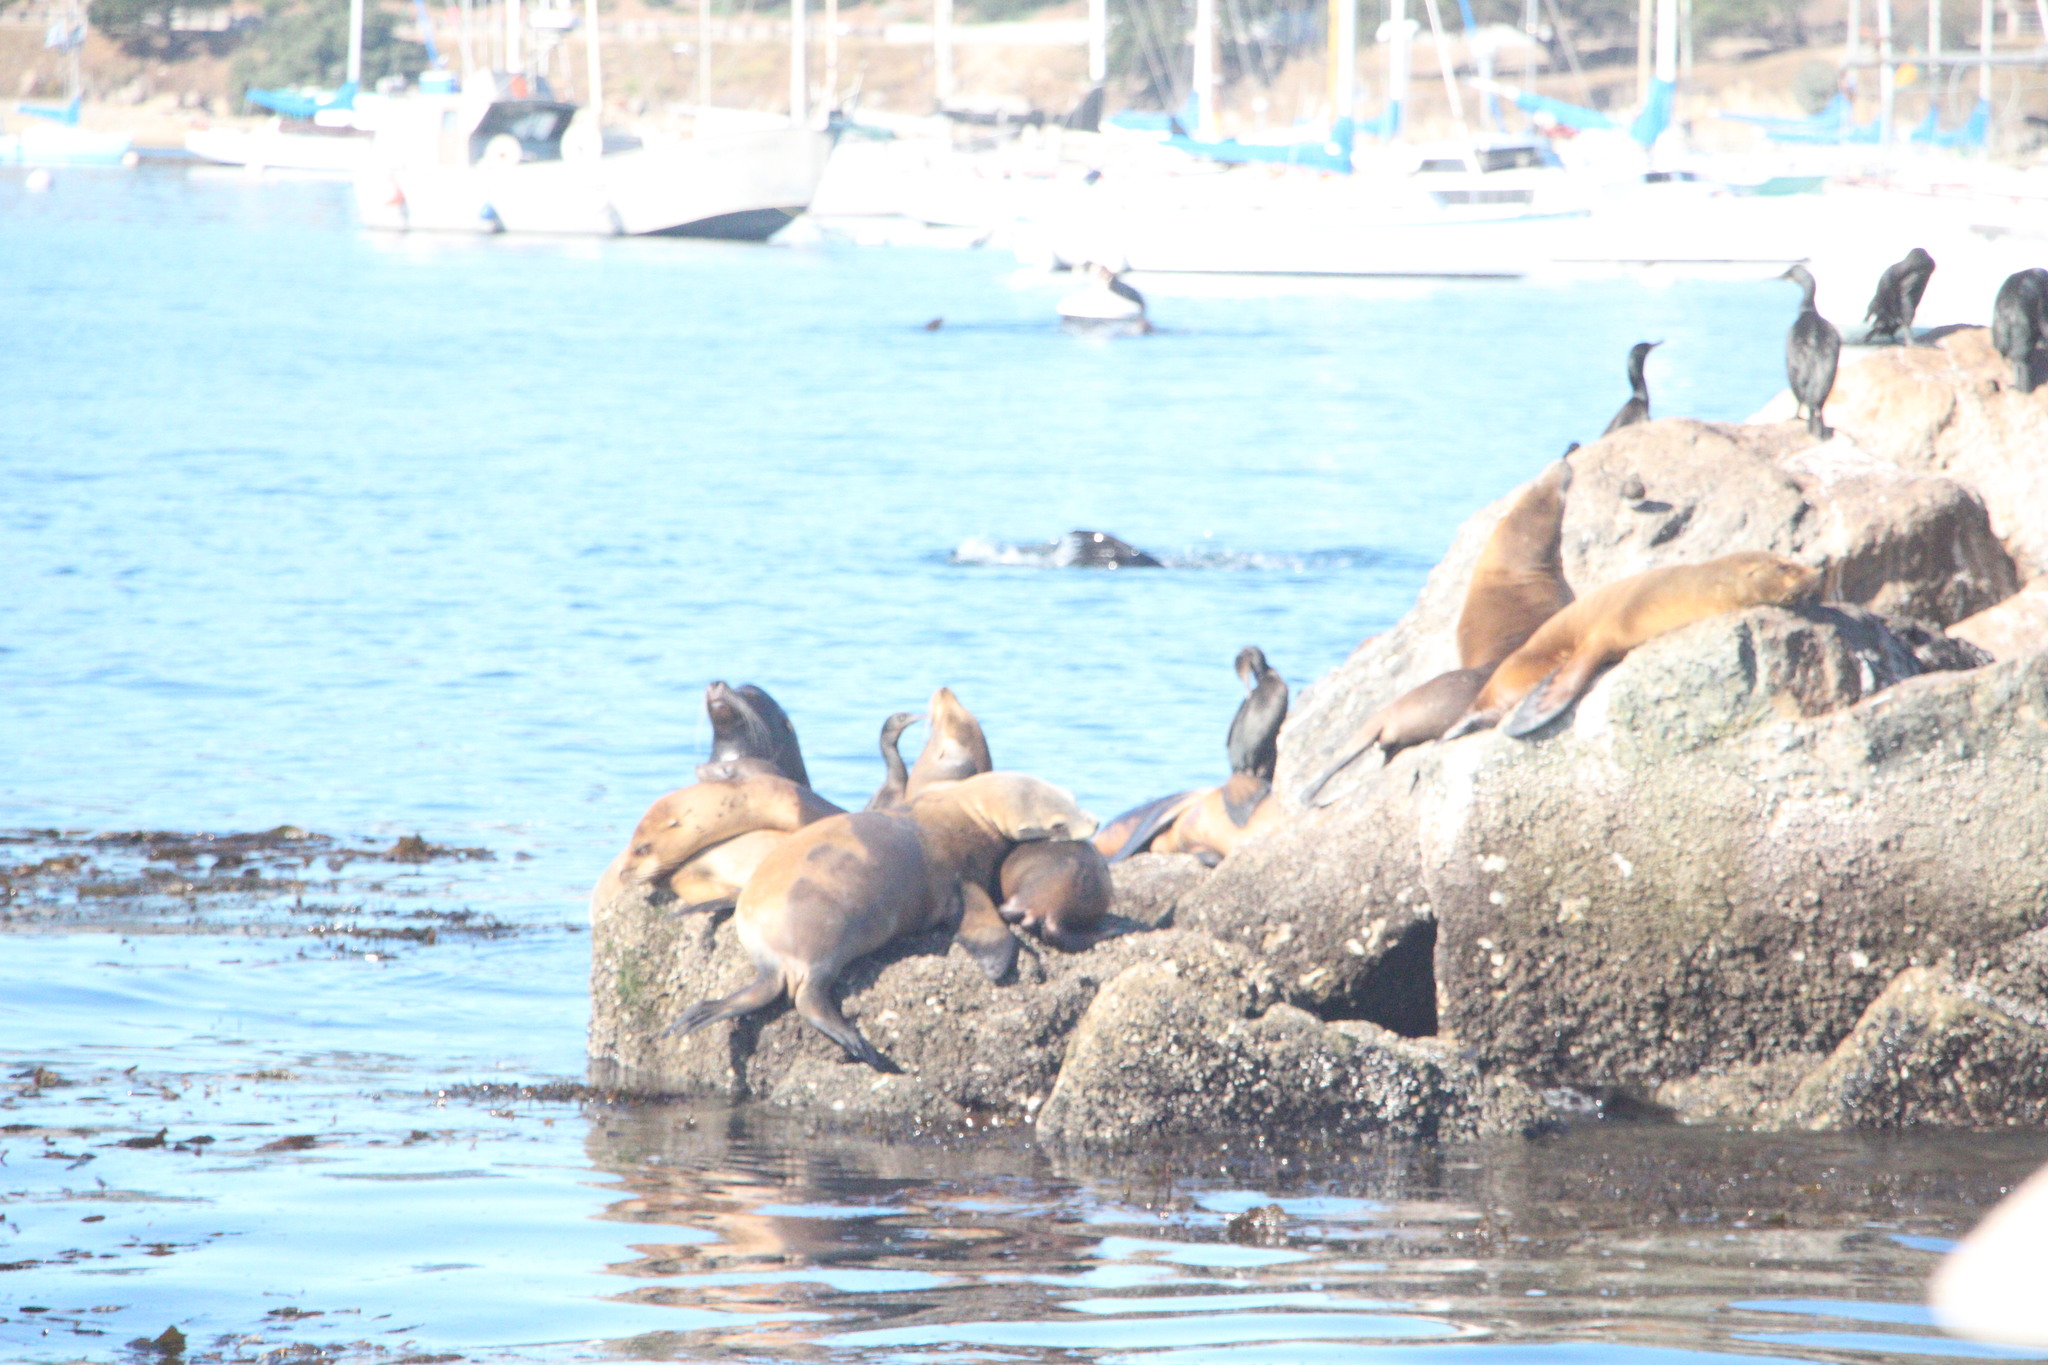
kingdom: Animalia
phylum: Chordata
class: Mammalia
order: Carnivora
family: Otariidae
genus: Zalophus
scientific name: Zalophus californianus
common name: California sea lion
